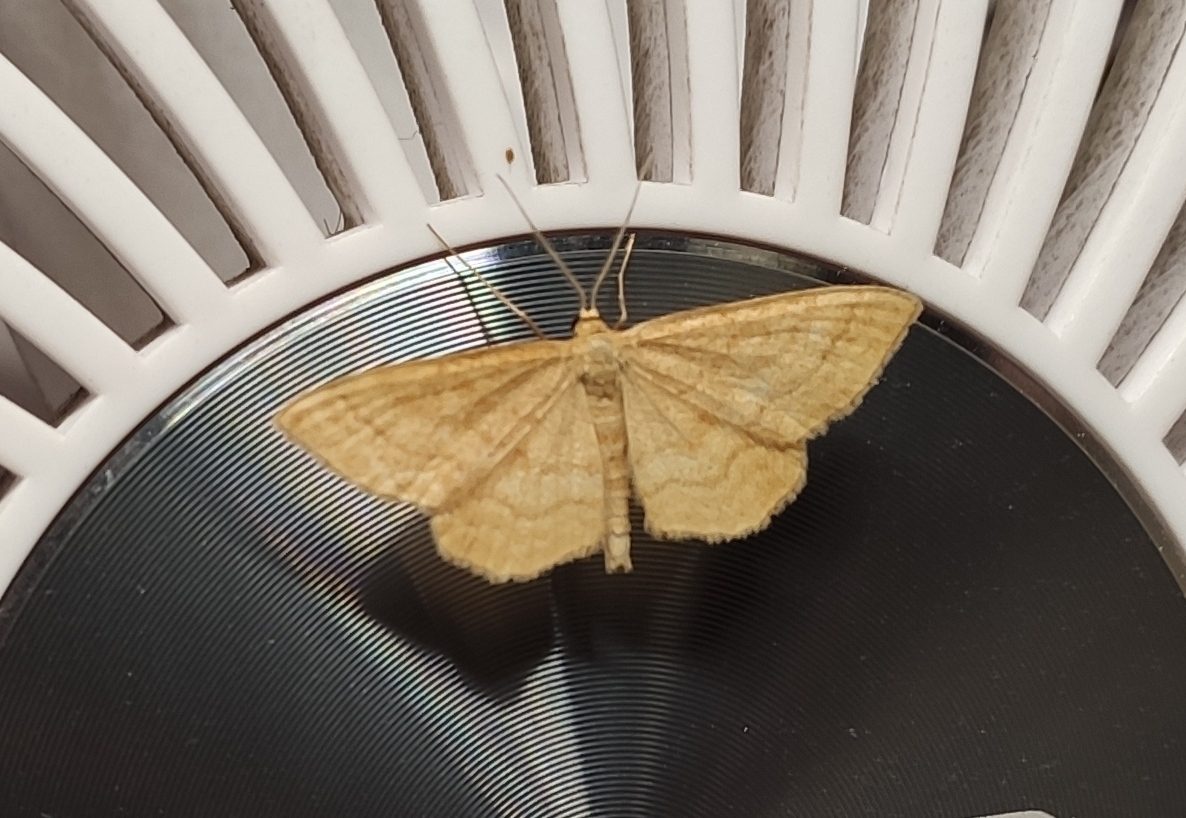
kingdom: Animalia
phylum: Arthropoda
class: Insecta
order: Lepidoptera
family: Geometridae
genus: Idaea
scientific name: Idaea ochrata
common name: Bright wave
